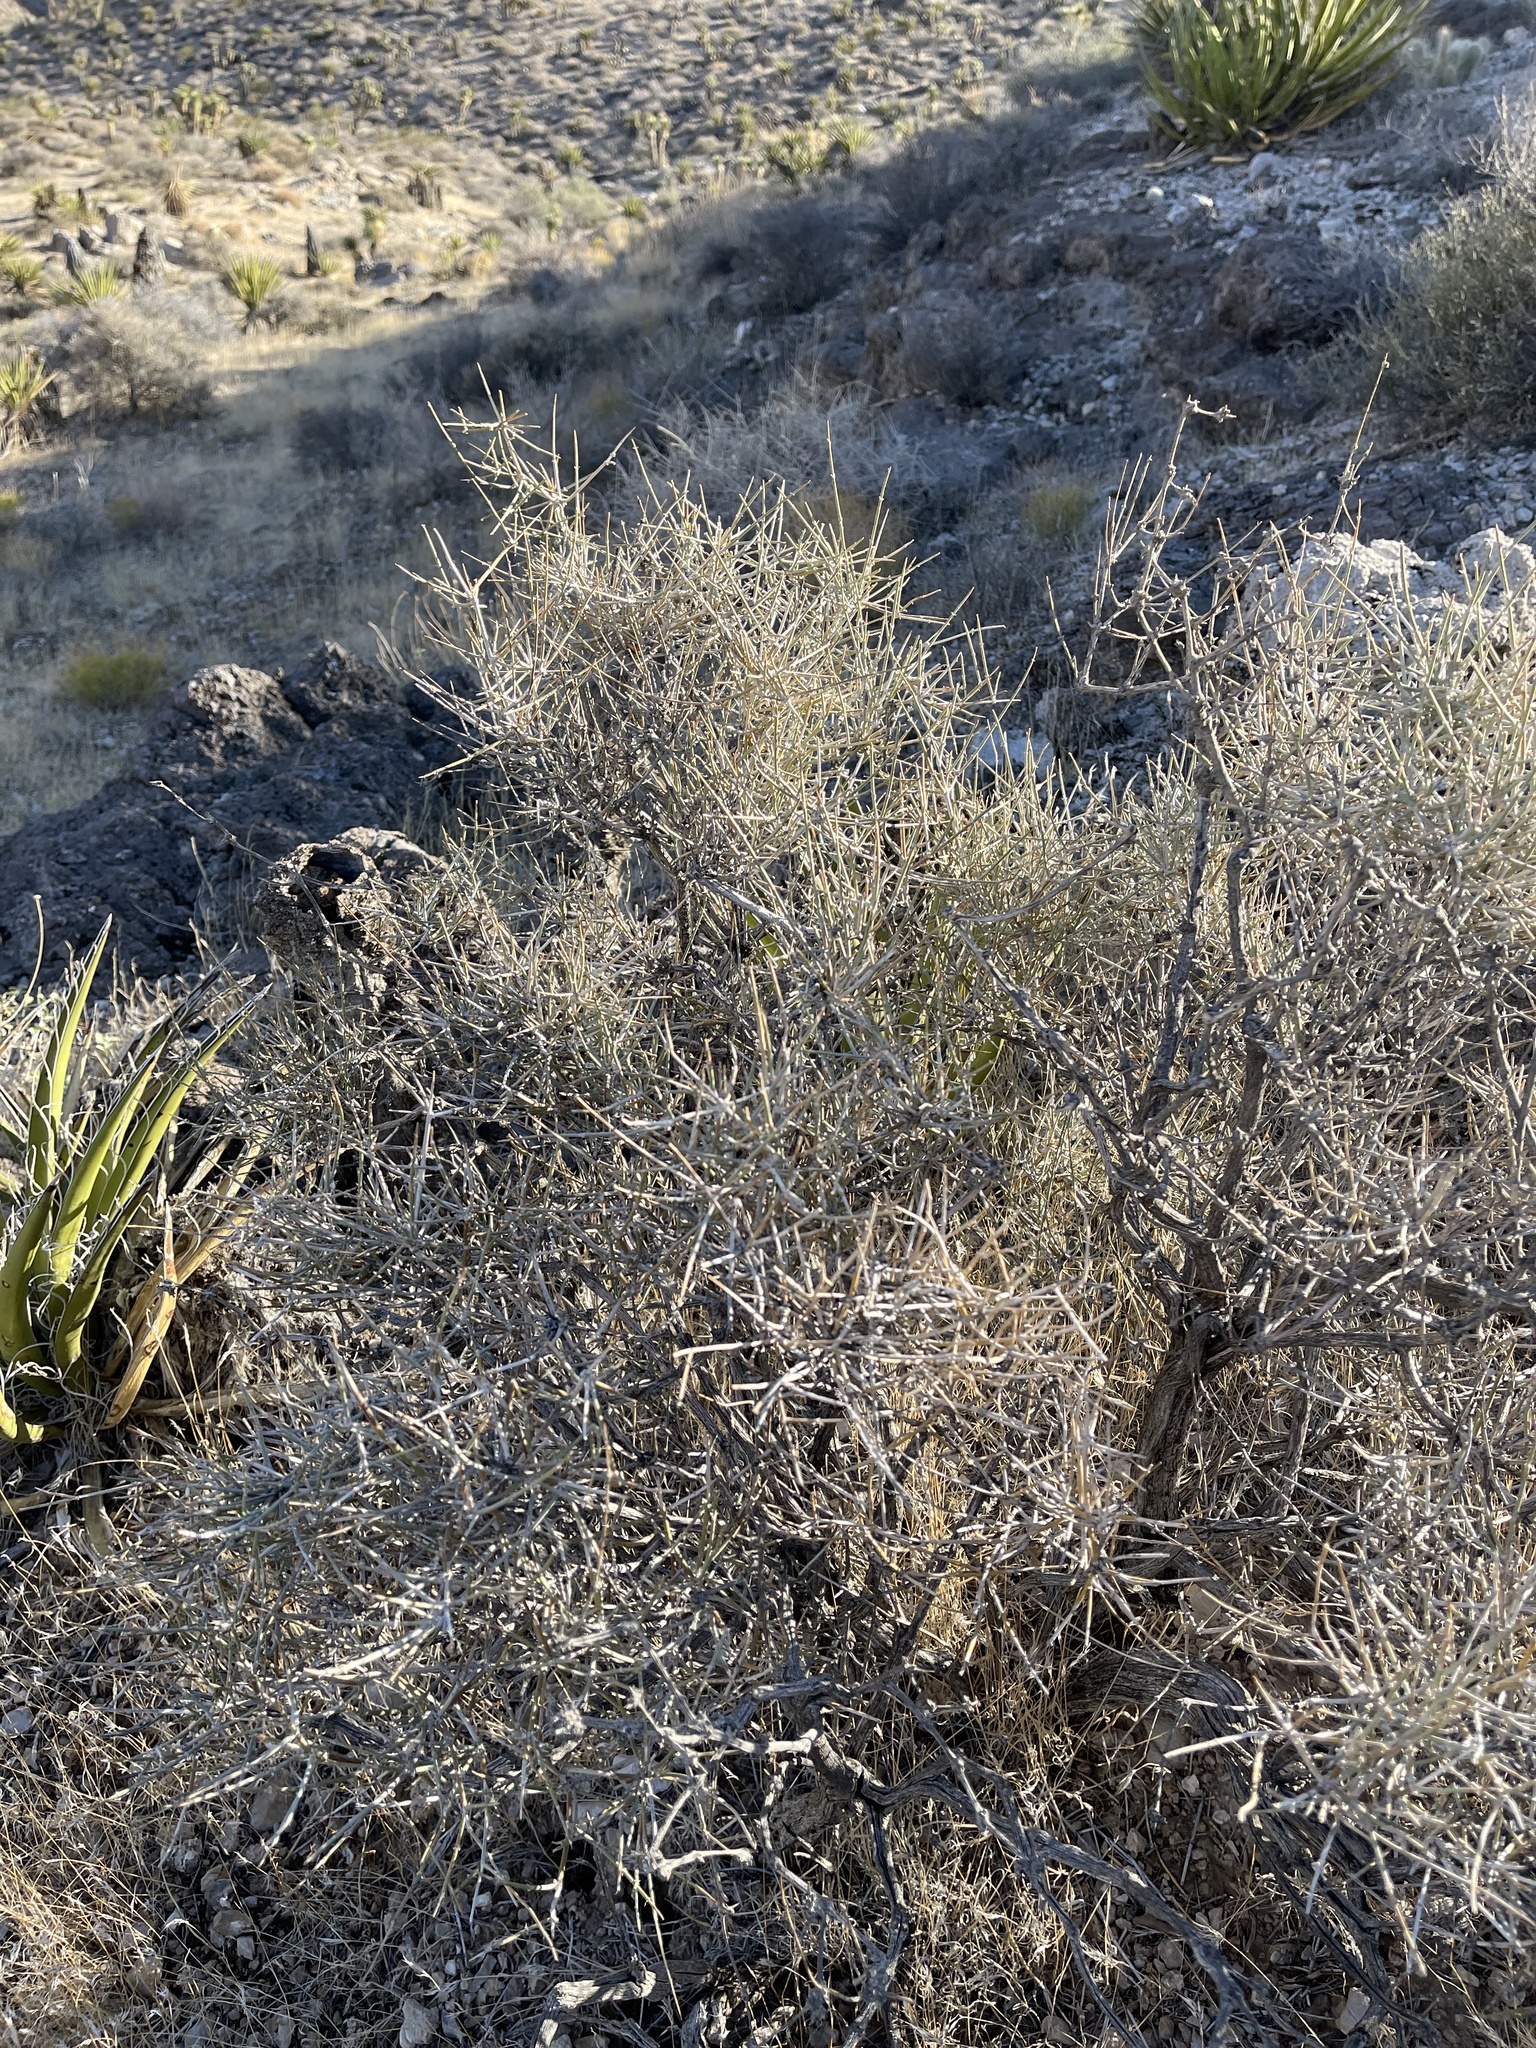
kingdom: Plantae
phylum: Tracheophyta
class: Gnetopsida
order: Ephedrales
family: Ephedraceae
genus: Ephedra
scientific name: Ephedra nevadensis
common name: Gray ephedra
